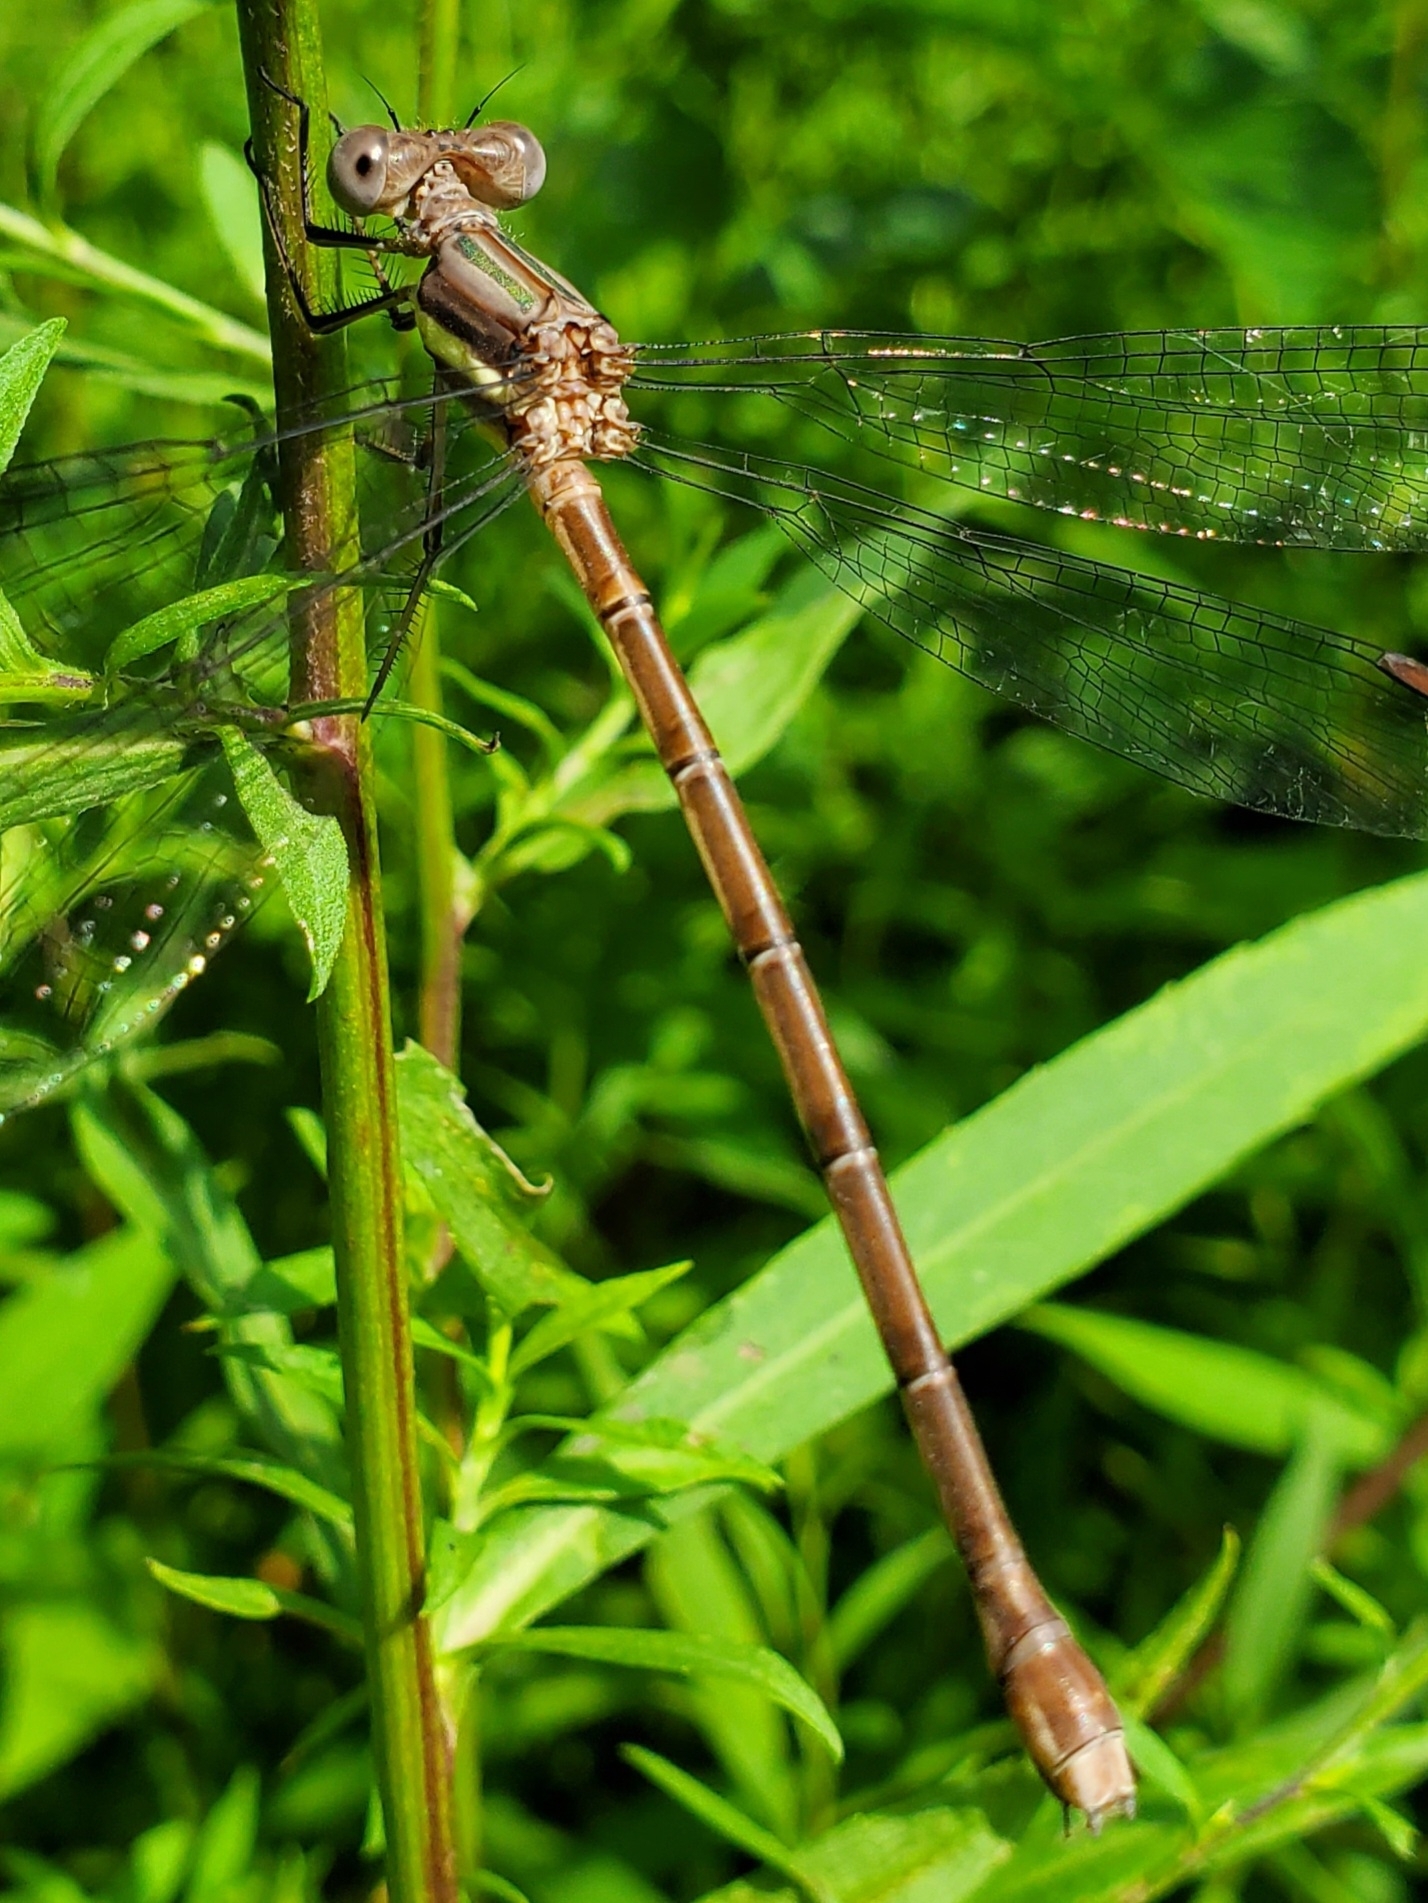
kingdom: Animalia
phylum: Arthropoda
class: Insecta
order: Odonata
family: Lestidae
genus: Archilestes
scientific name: Archilestes grandis
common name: Great spreadwing
